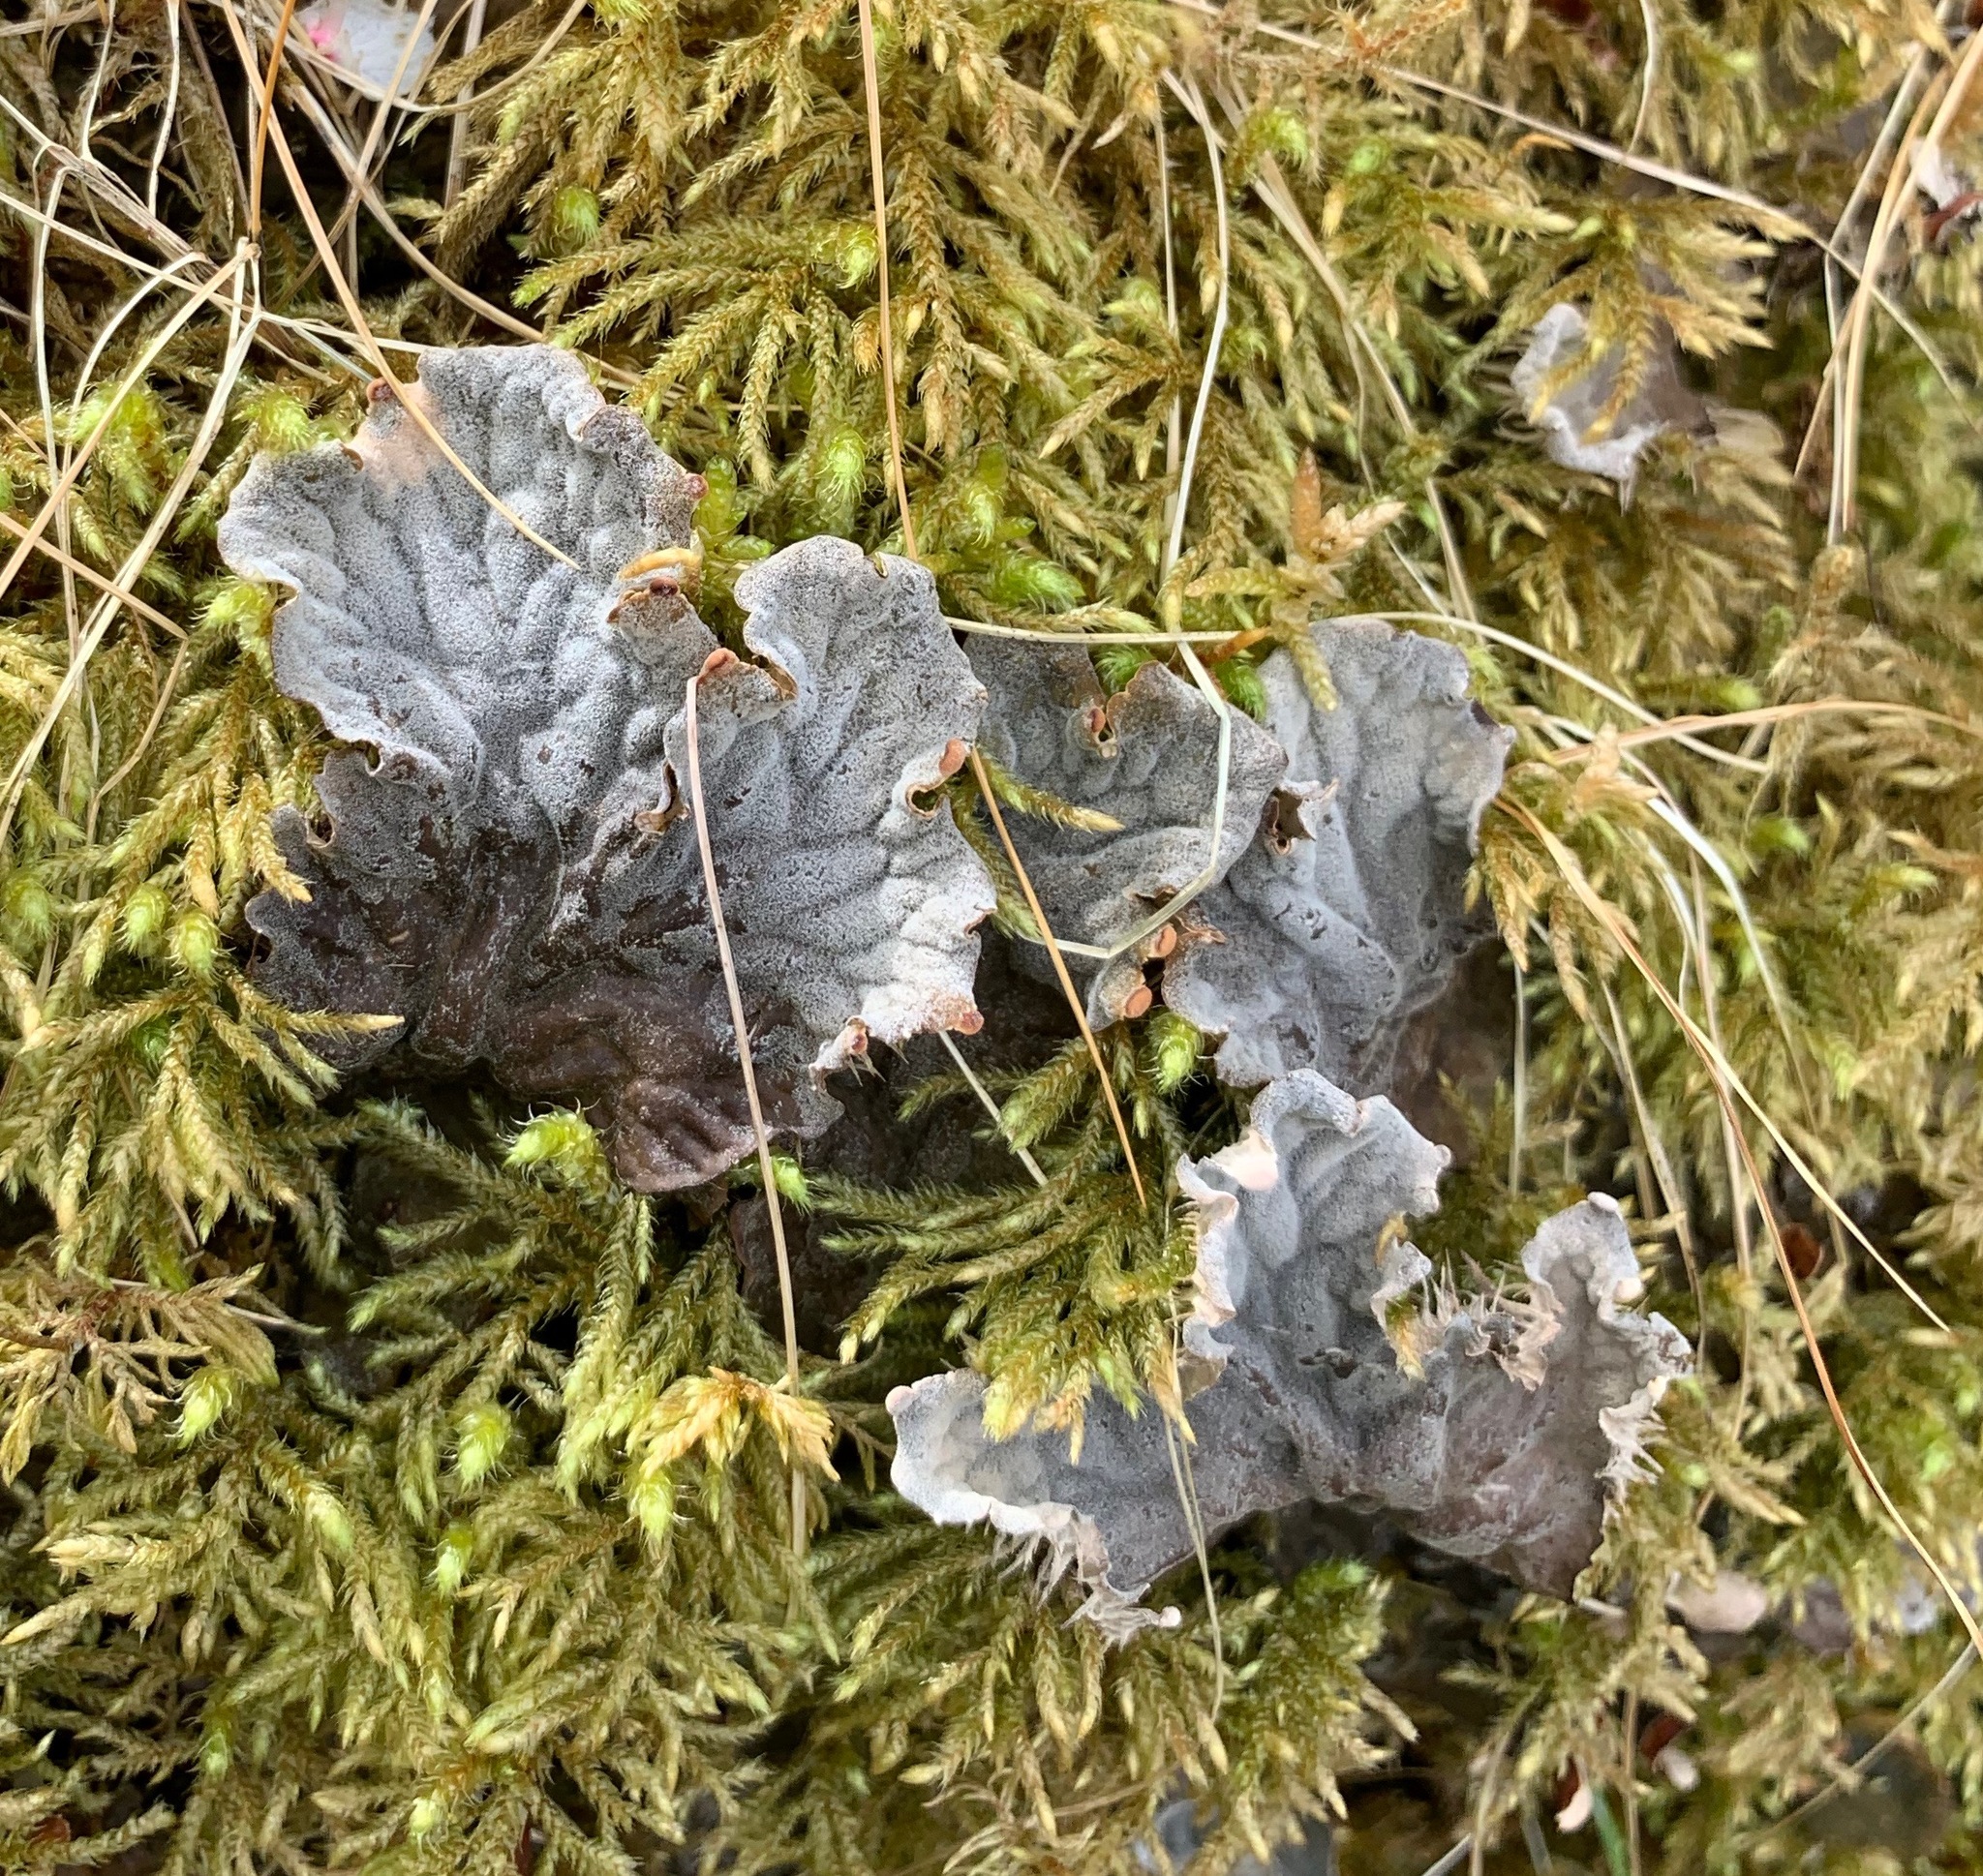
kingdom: Fungi
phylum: Ascomycota
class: Lecanoromycetes
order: Peltigerales
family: Peltigeraceae
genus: Peltigera
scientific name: Peltigera membranacea
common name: Membranous pelt lichen
